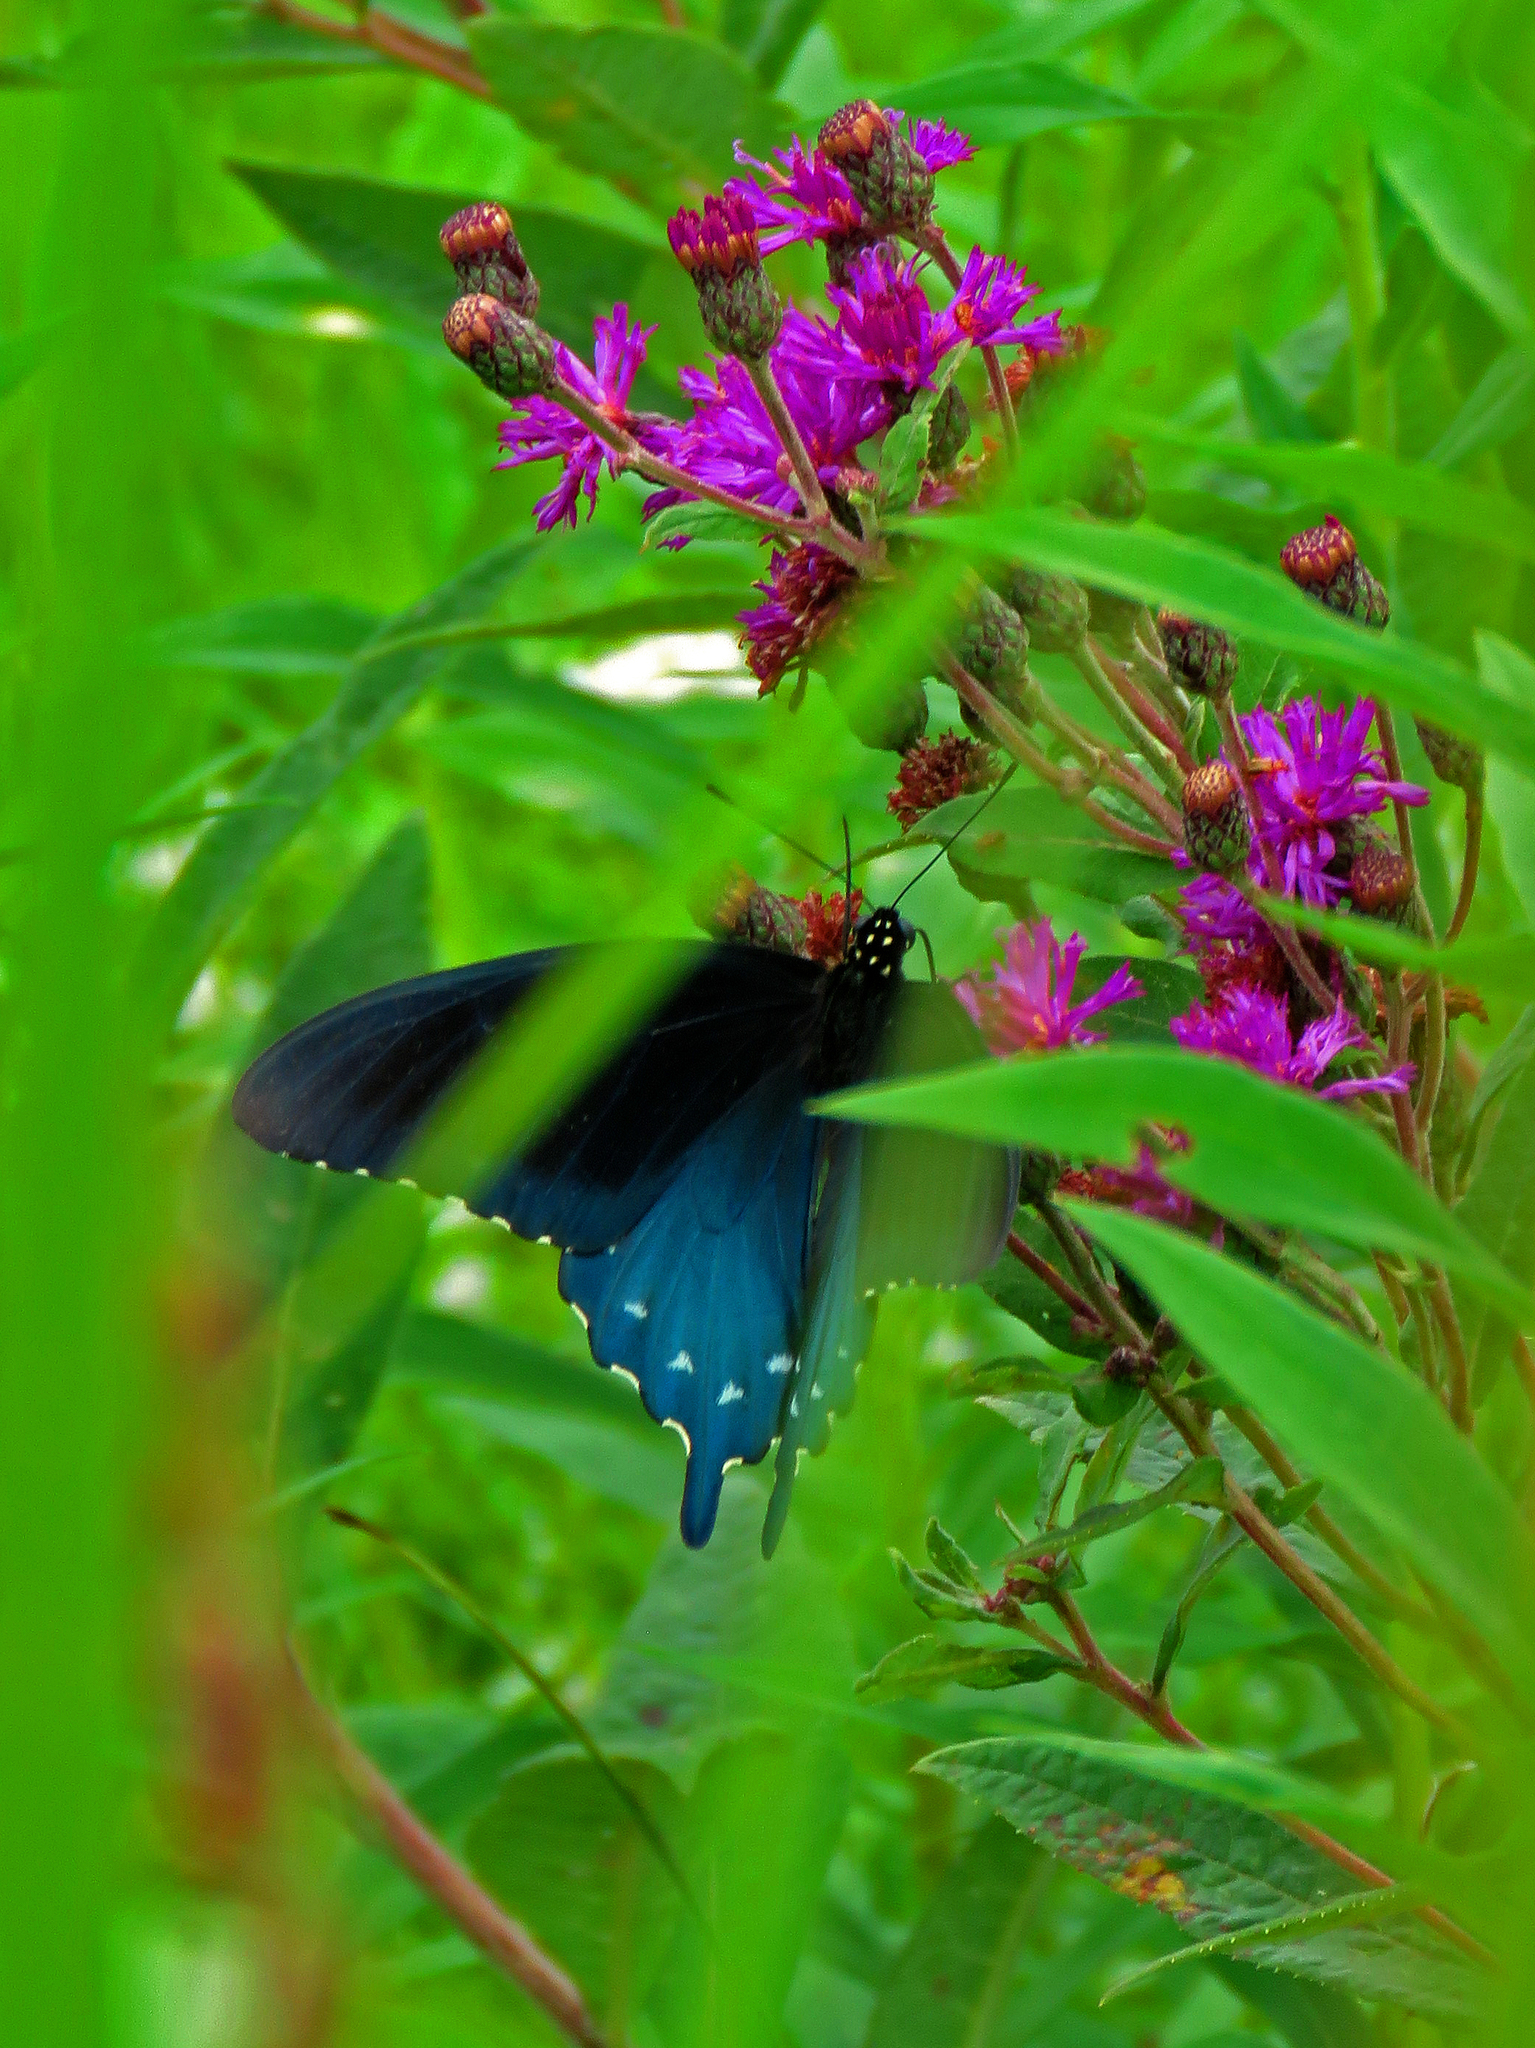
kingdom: Animalia
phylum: Arthropoda
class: Insecta
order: Lepidoptera
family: Papilionidae
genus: Battus
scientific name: Battus philenor
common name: Pipevine swallowtail
